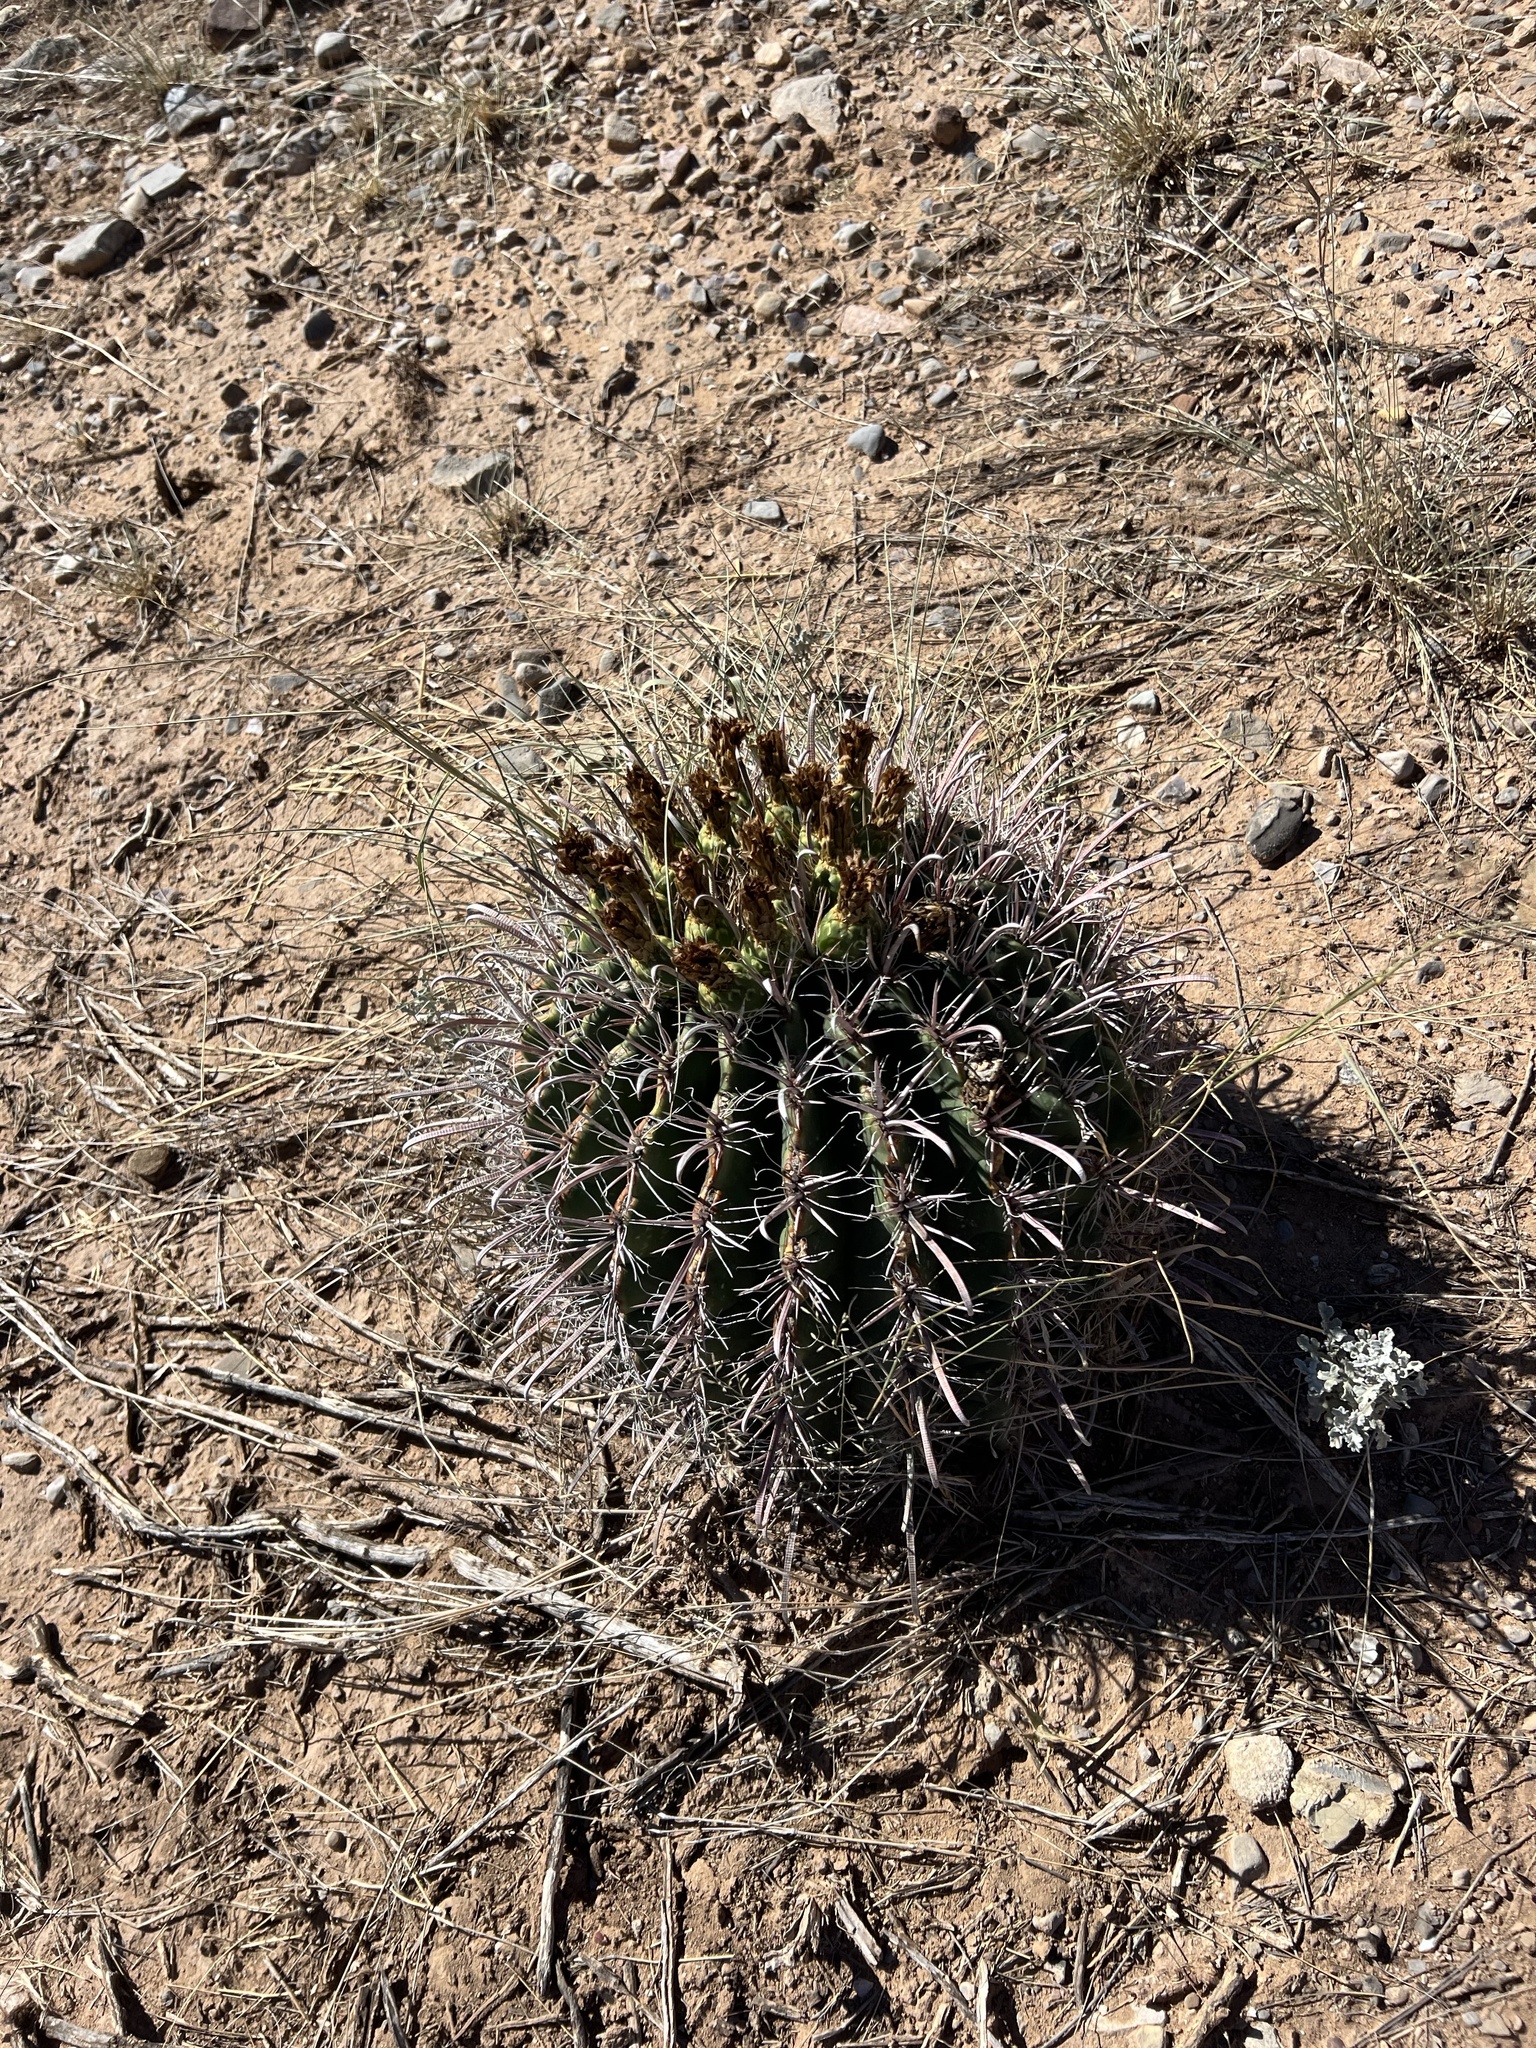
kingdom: Plantae
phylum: Tracheophyta
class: Magnoliopsida
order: Caryophyllales
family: Cactaceae
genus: Ferocactus
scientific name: Ferocactus wislizeni
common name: Candy barrel cactus
